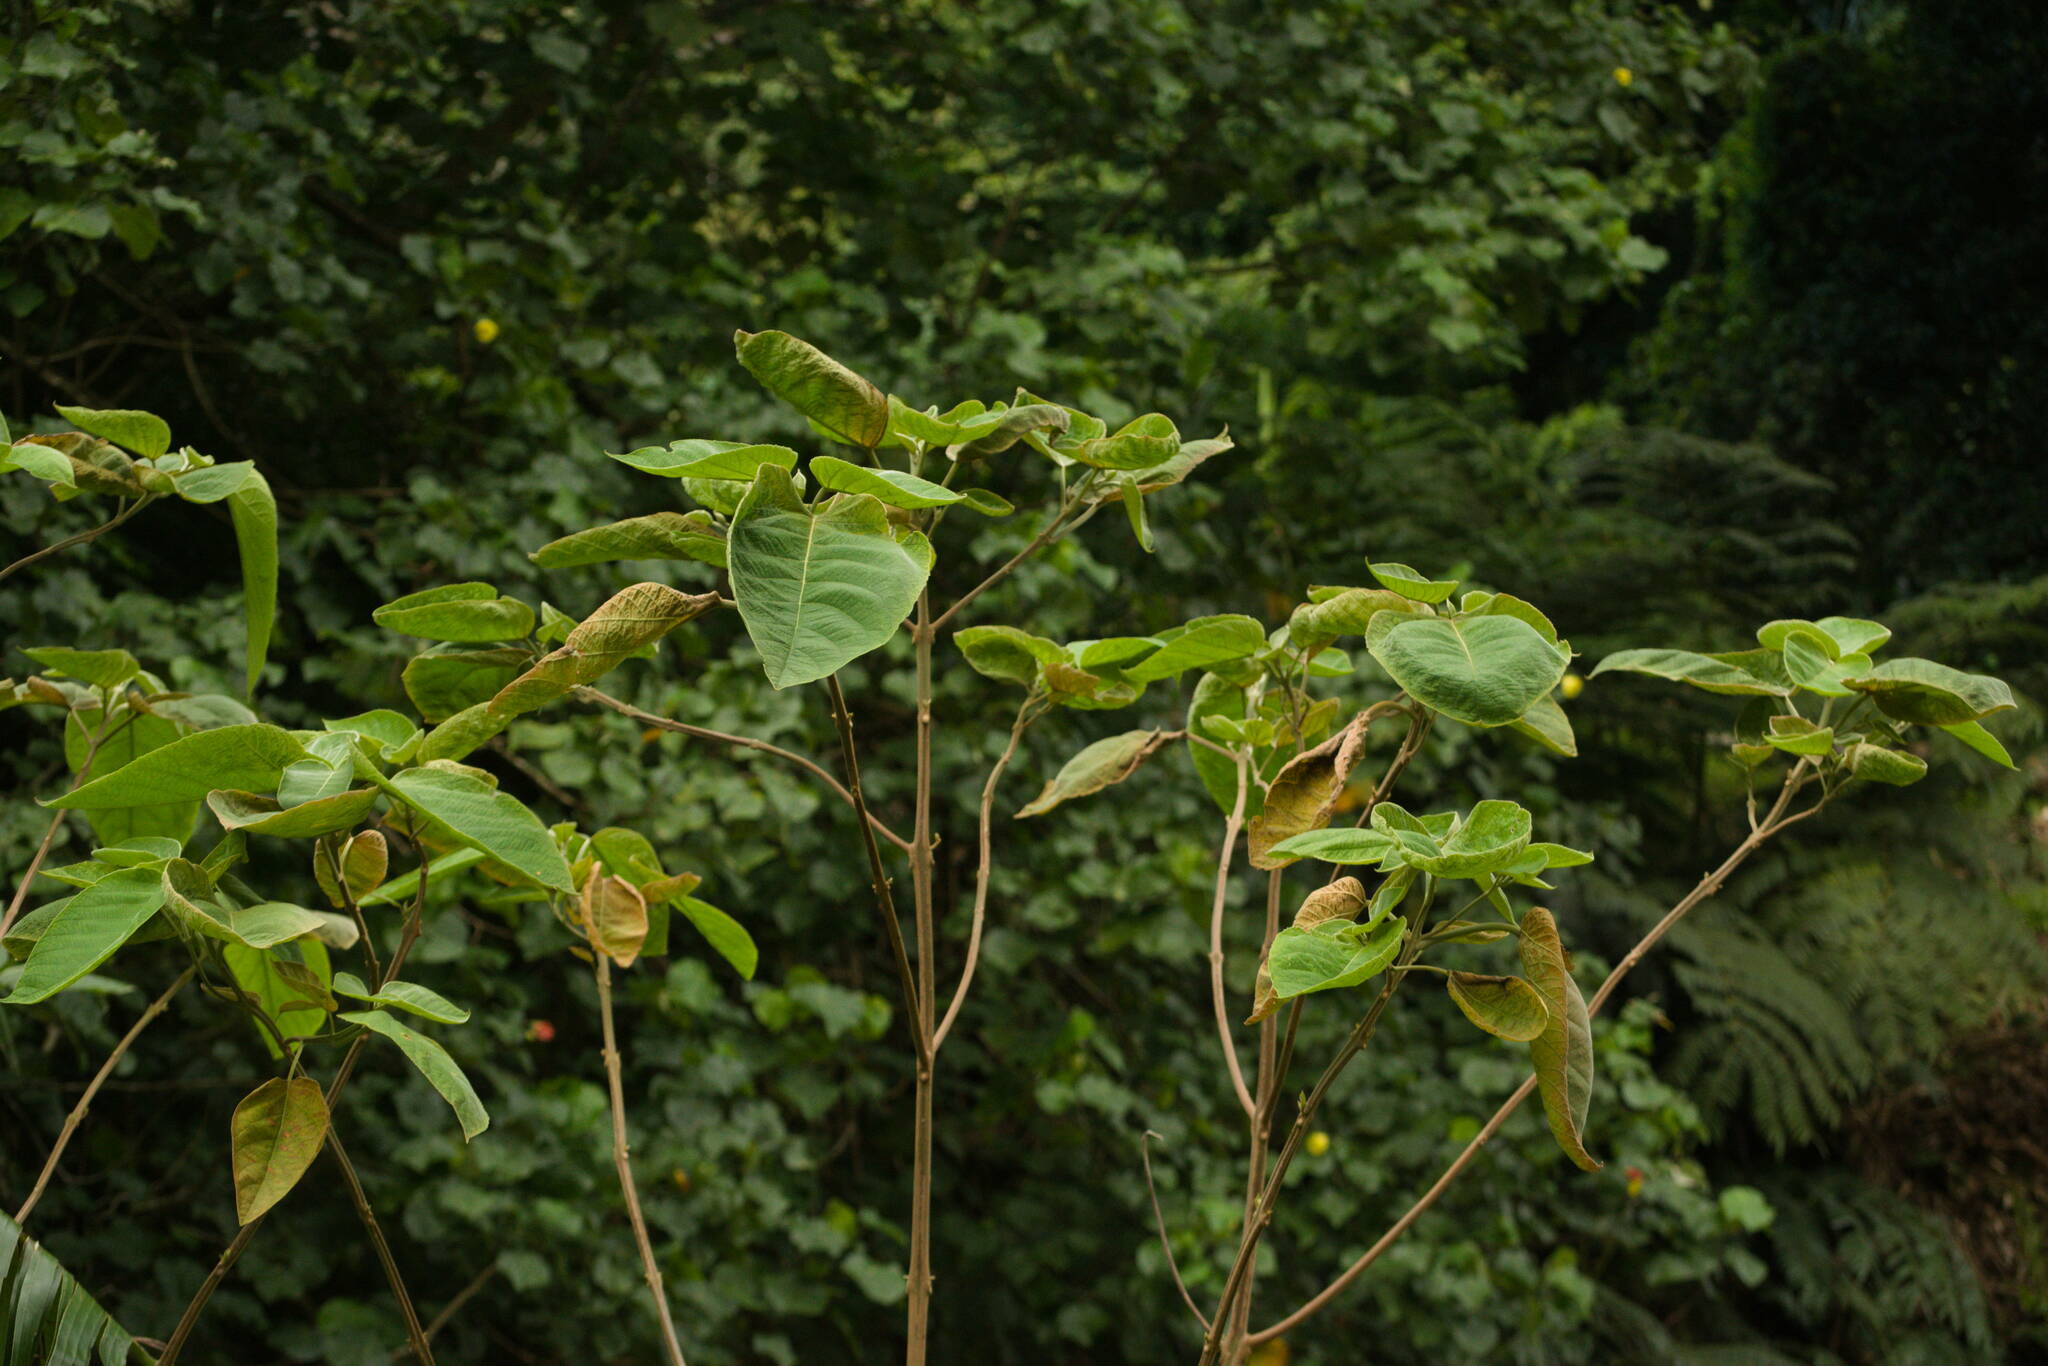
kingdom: Plantae
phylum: Tracheophyta
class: Magnoliopsida
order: Lamiales
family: Lamiaceae
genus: Clerodendrum
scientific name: Clerodendrum macrostegium
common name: Velvetleaf glorybower
